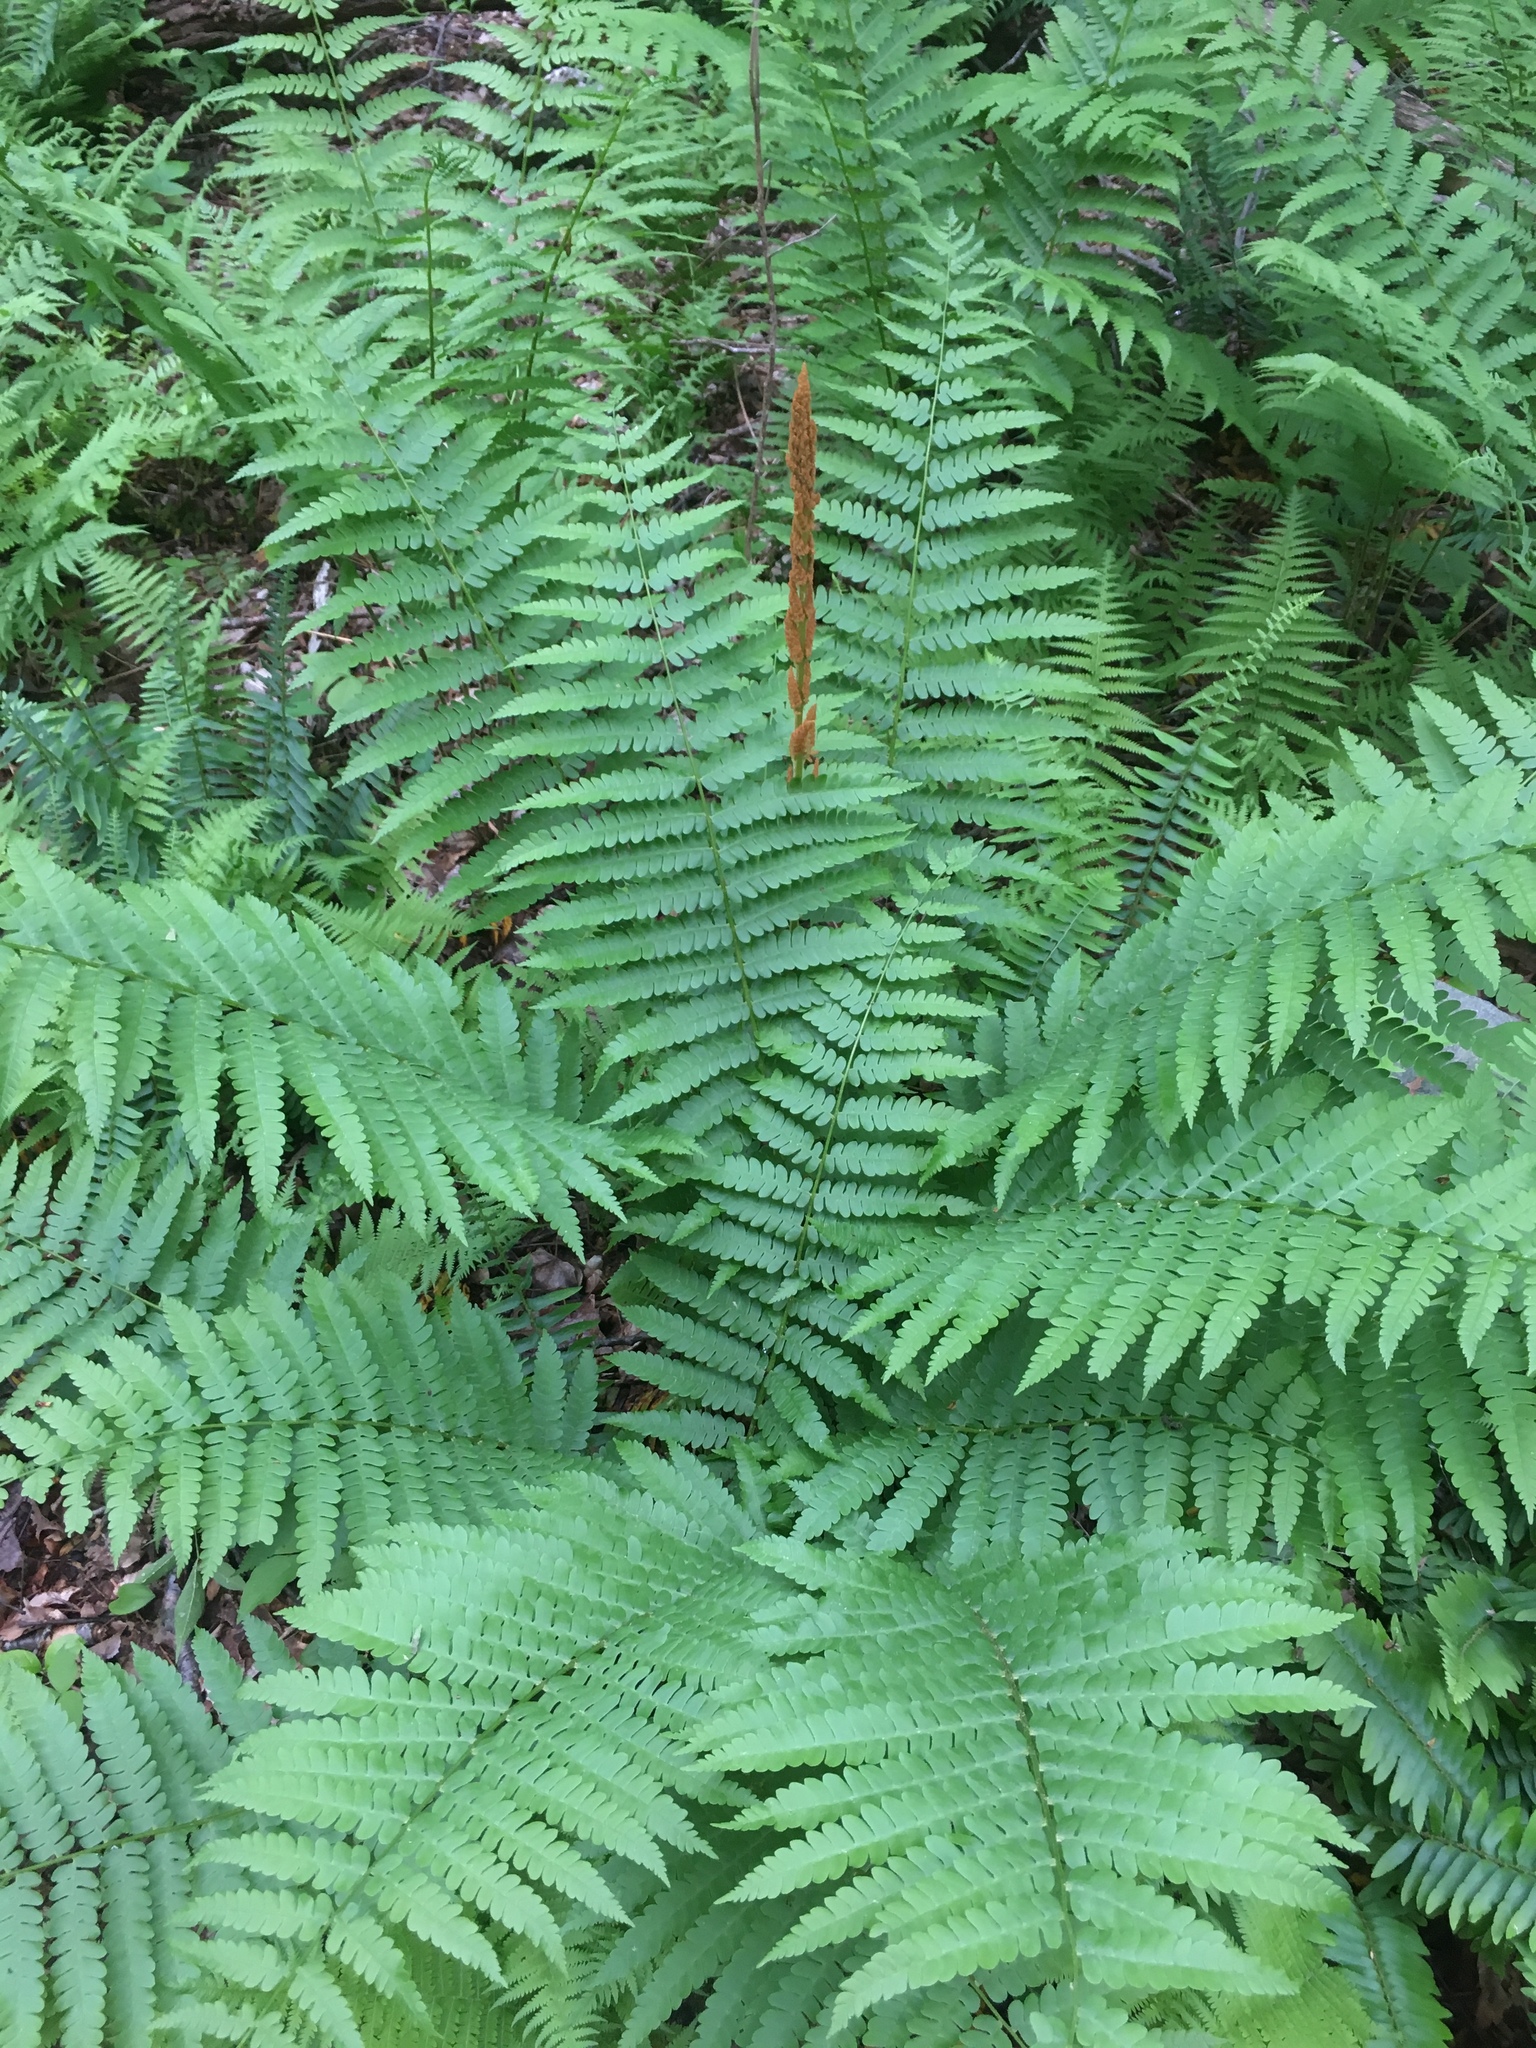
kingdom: Plantae
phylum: Tracheophyta
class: Polypodiopsida
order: Osmundales
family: Osmundaceae
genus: Osmundastrum
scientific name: Osmundastrum cinnamomeum
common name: Cinnamon fern
